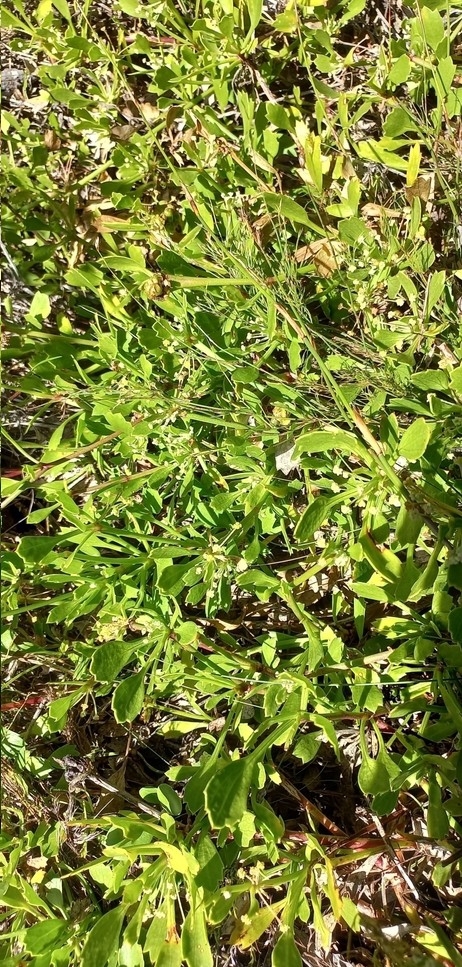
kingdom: Plantae
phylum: Tracheophyta
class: Magnoliopsida
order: Apiales
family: Apiaceae
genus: Centella
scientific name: Centella triloba
